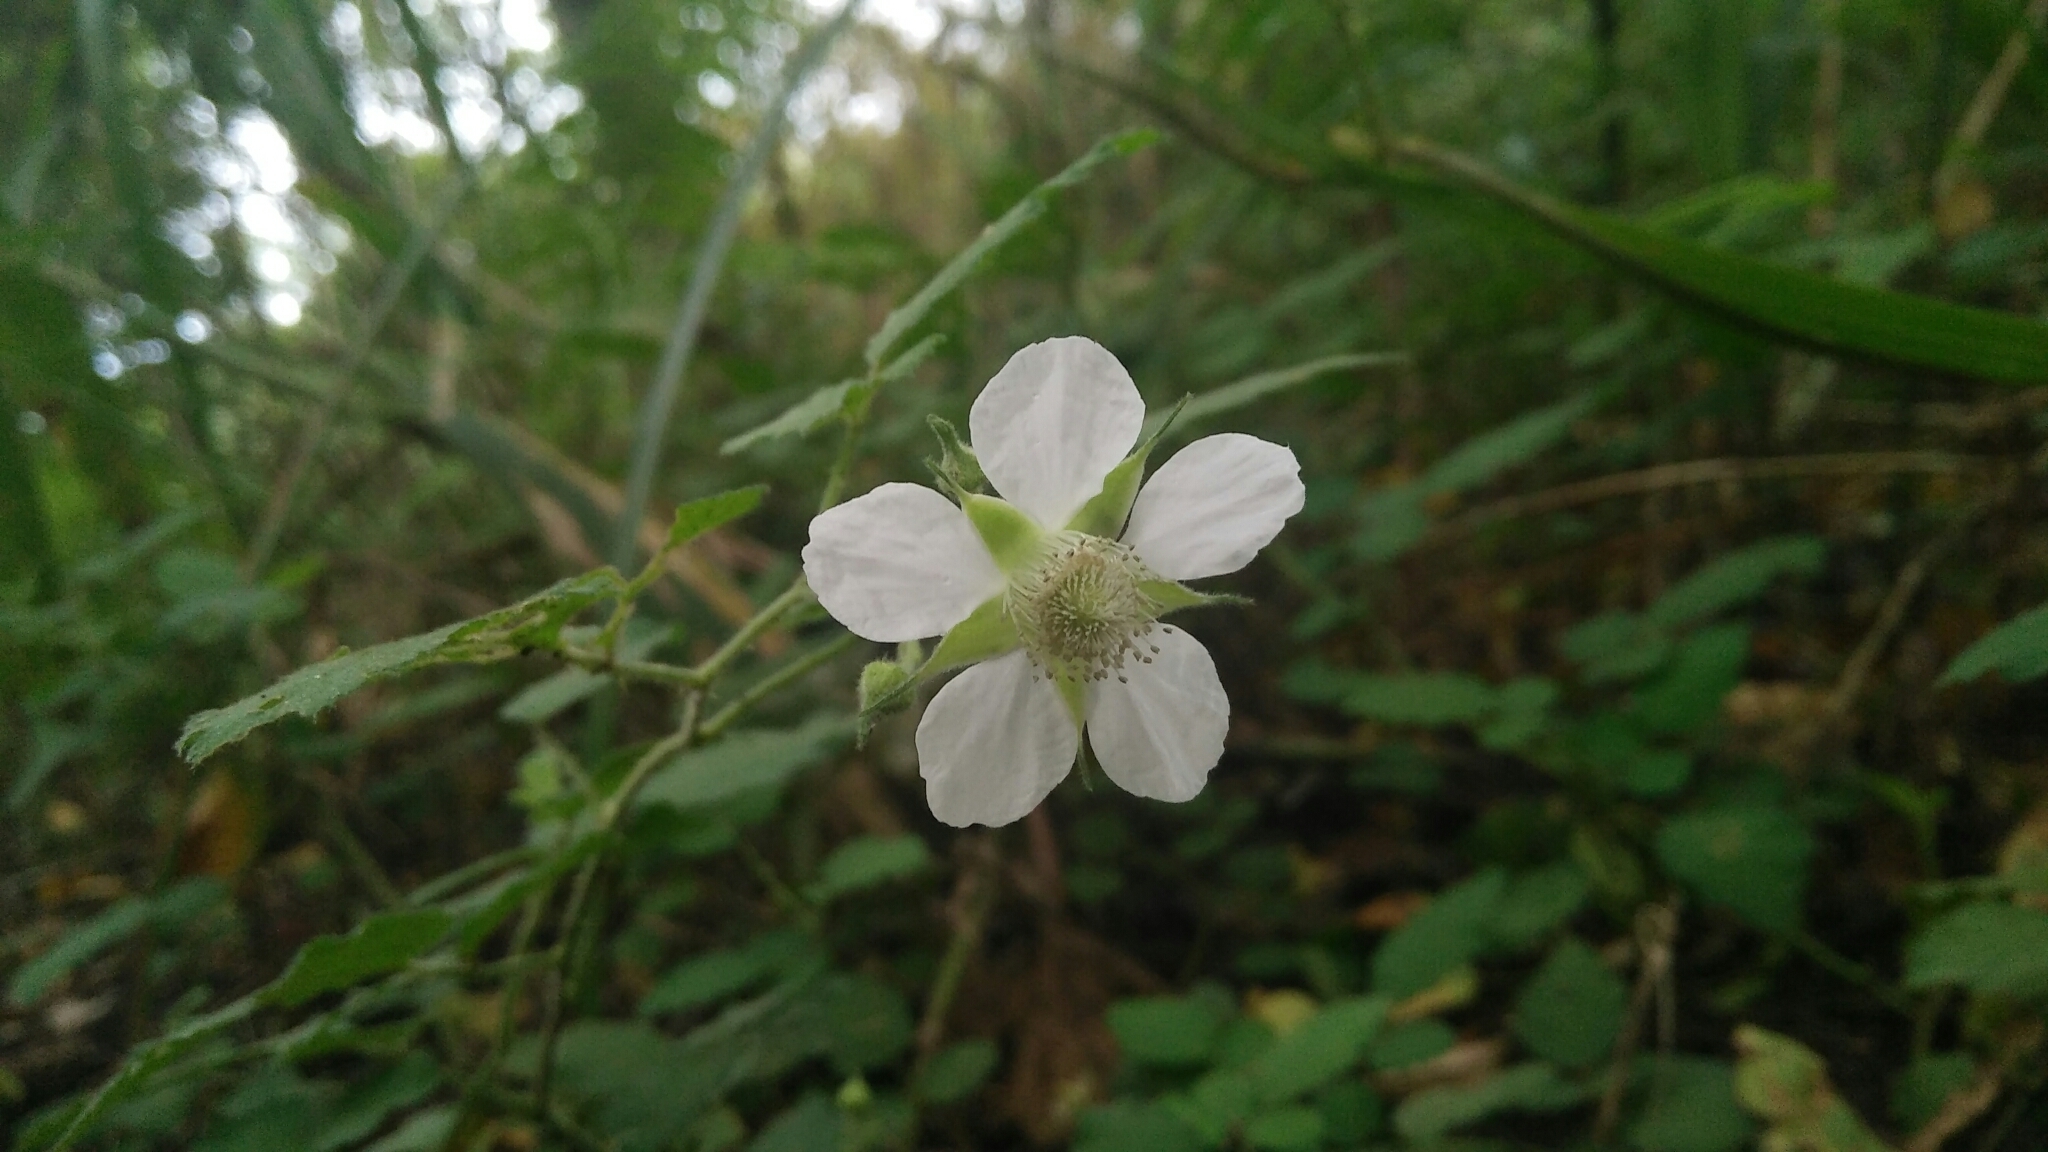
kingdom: Plantae
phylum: Tracheophyta
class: Magnoliopsida
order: Rosales
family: Rosaceae
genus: Rubus
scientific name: Rubus rosifolius
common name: Roseleaf raspberry
